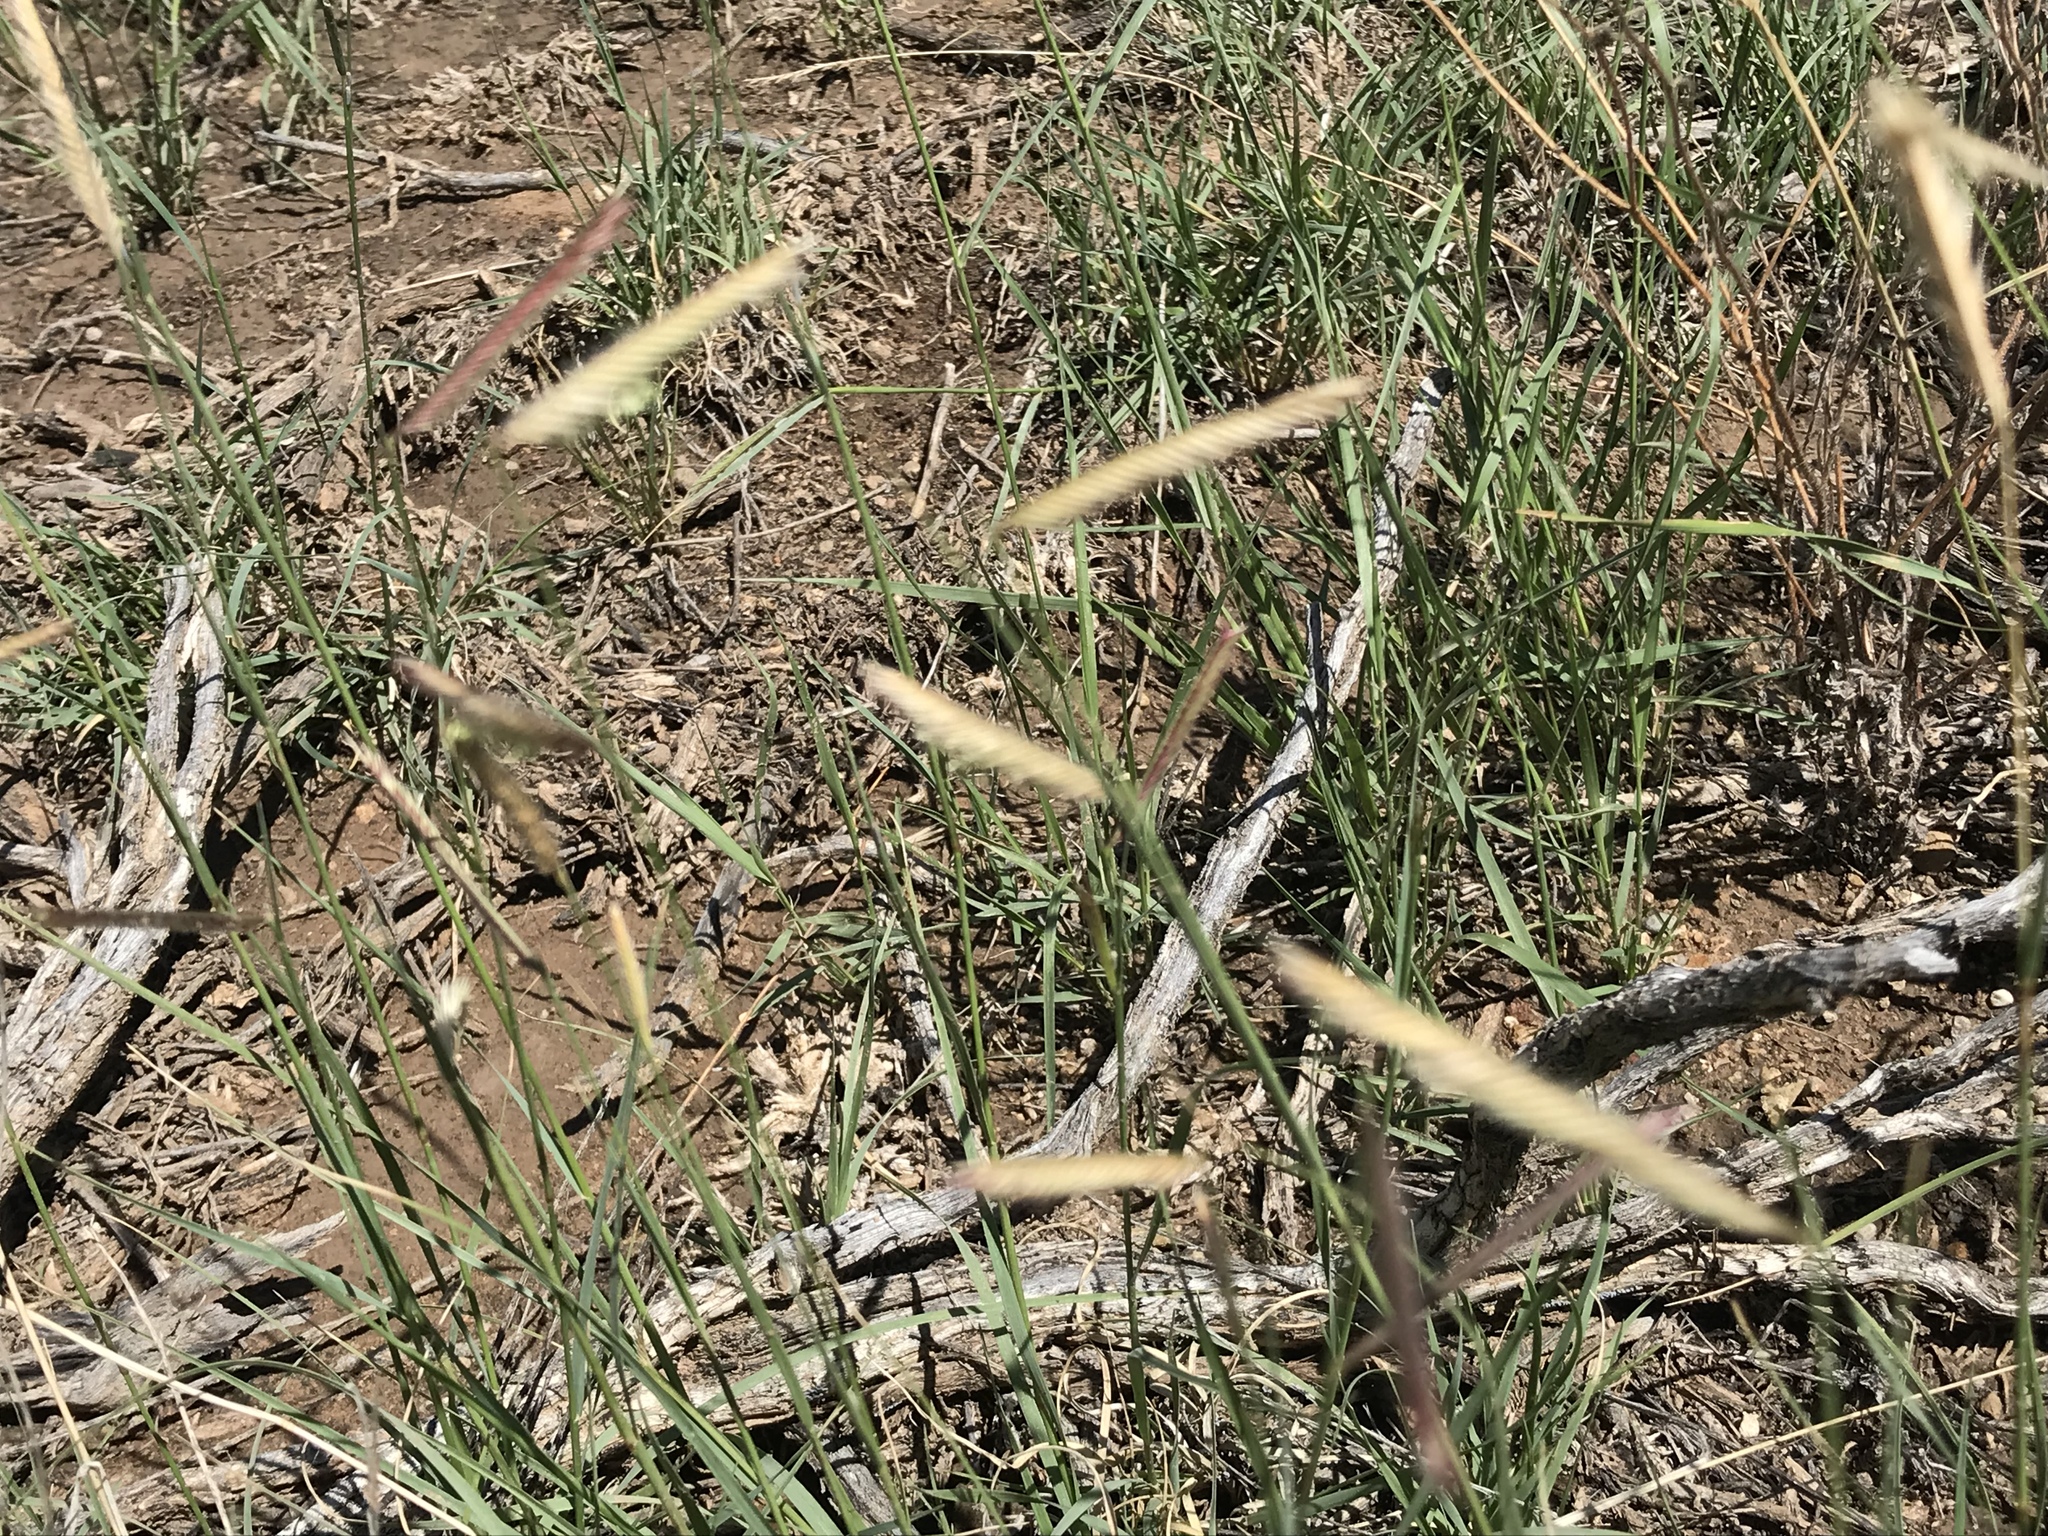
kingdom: Plantae
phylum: Tracheophyta
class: Liliopsida
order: Poales
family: Poaceae
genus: Bouteloua
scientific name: Bouteloua gracilis
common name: Blue grama
